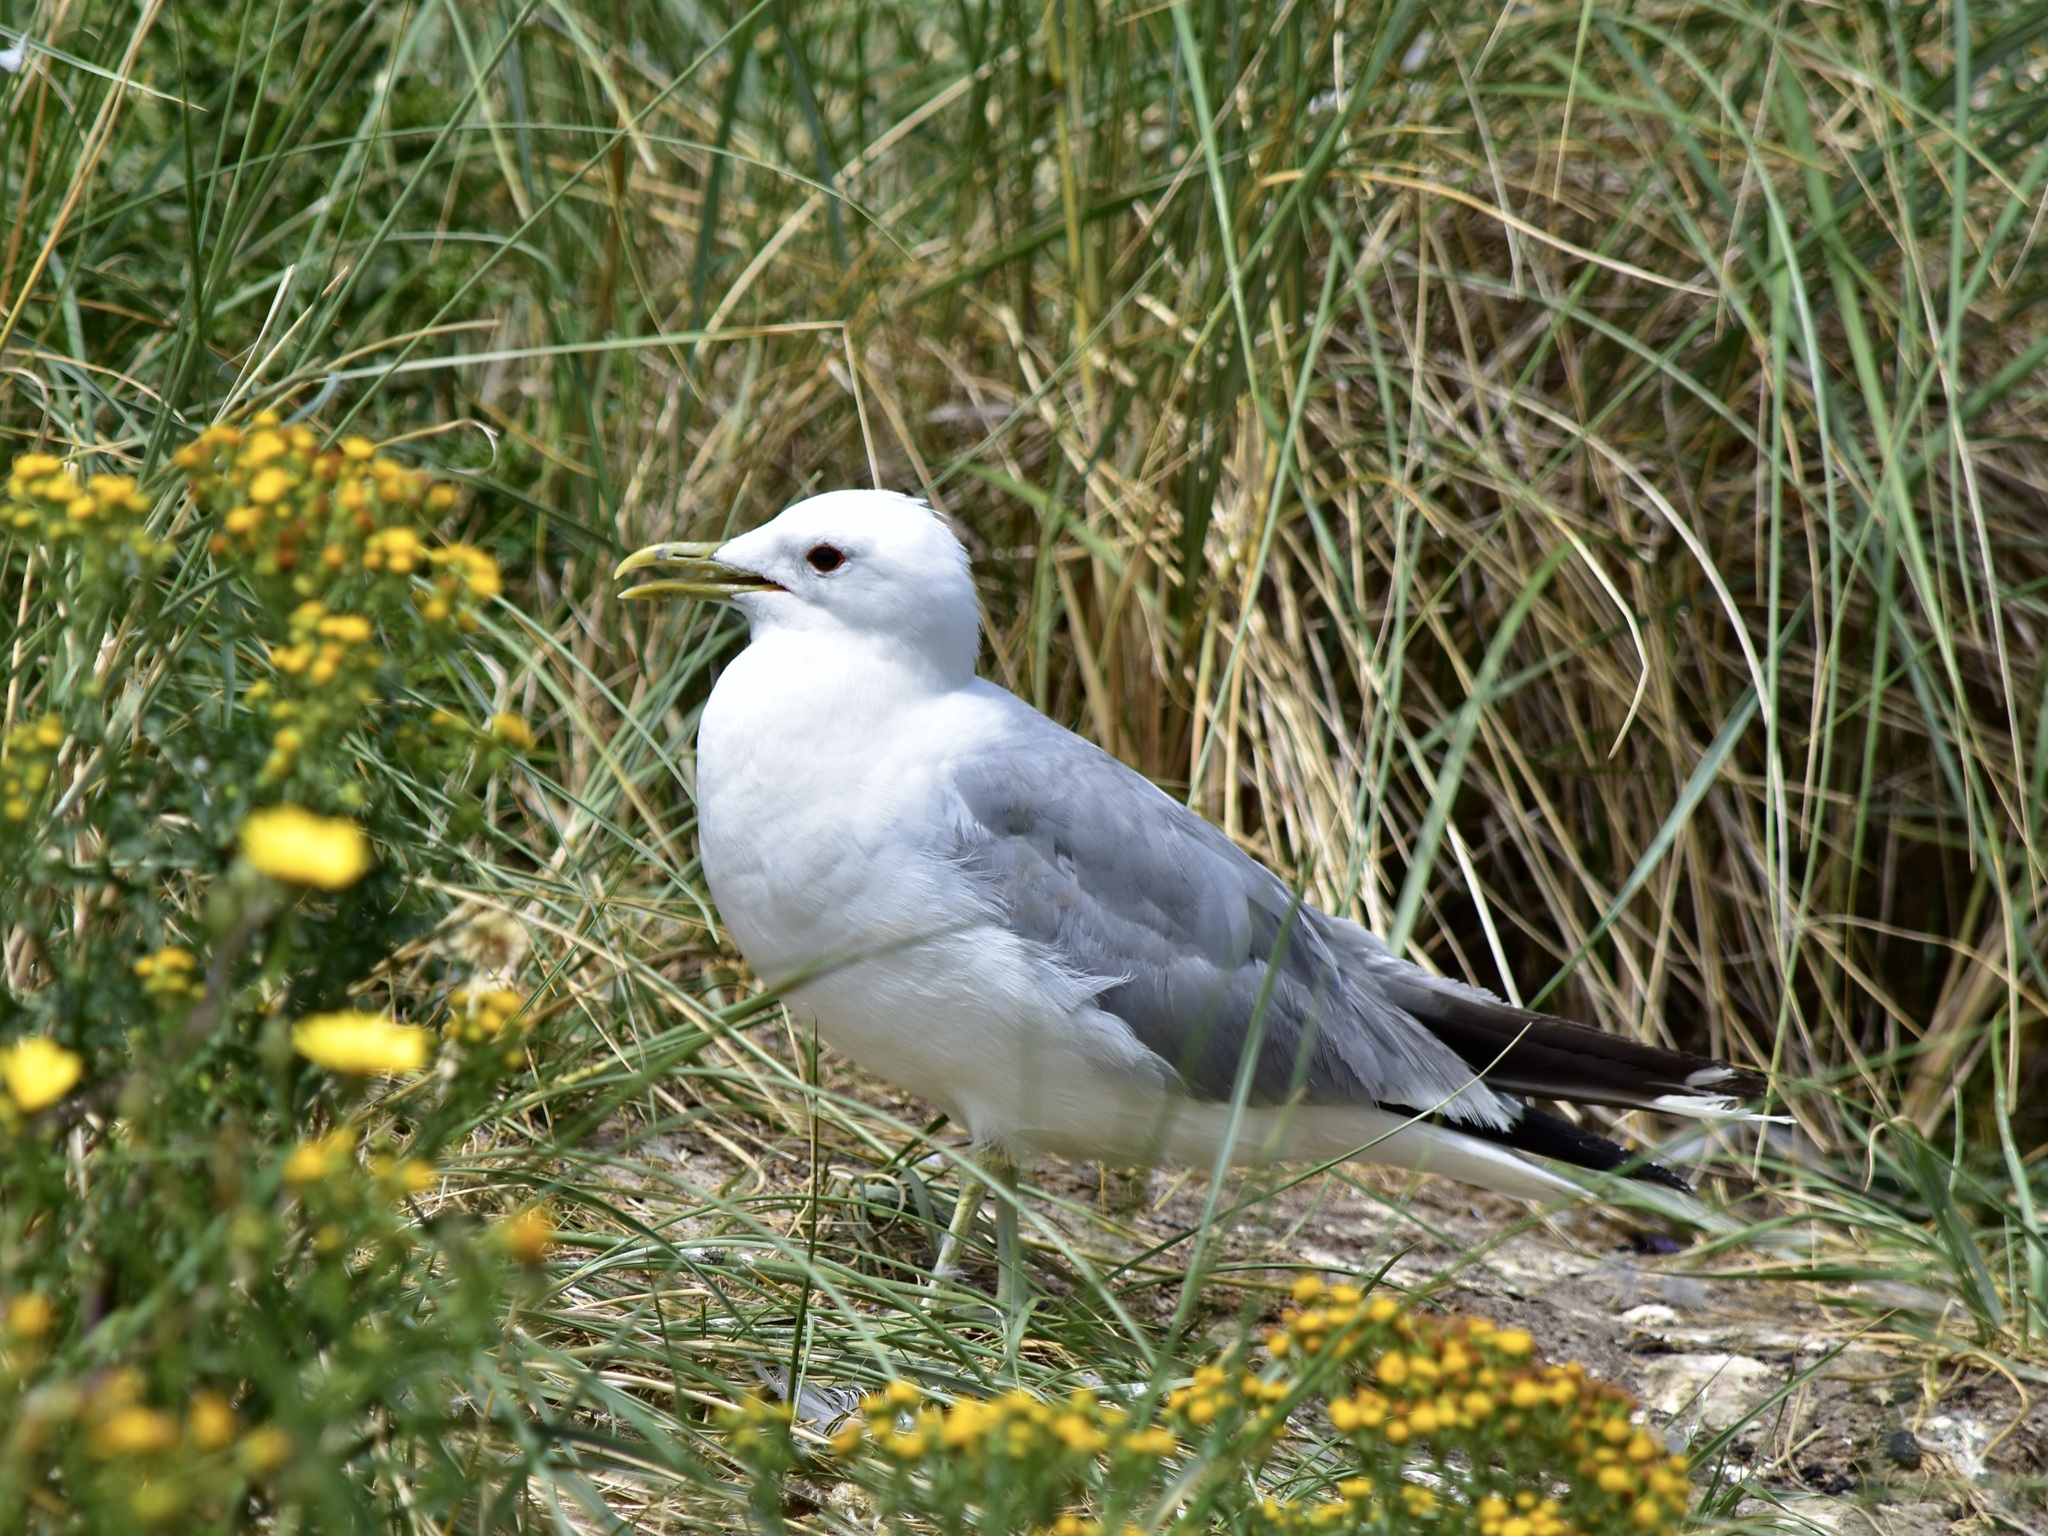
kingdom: Animalia
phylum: Chordata
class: Aves
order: Charadriiformes
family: Laridae
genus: Larus
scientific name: Larus canus
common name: Mew gull
